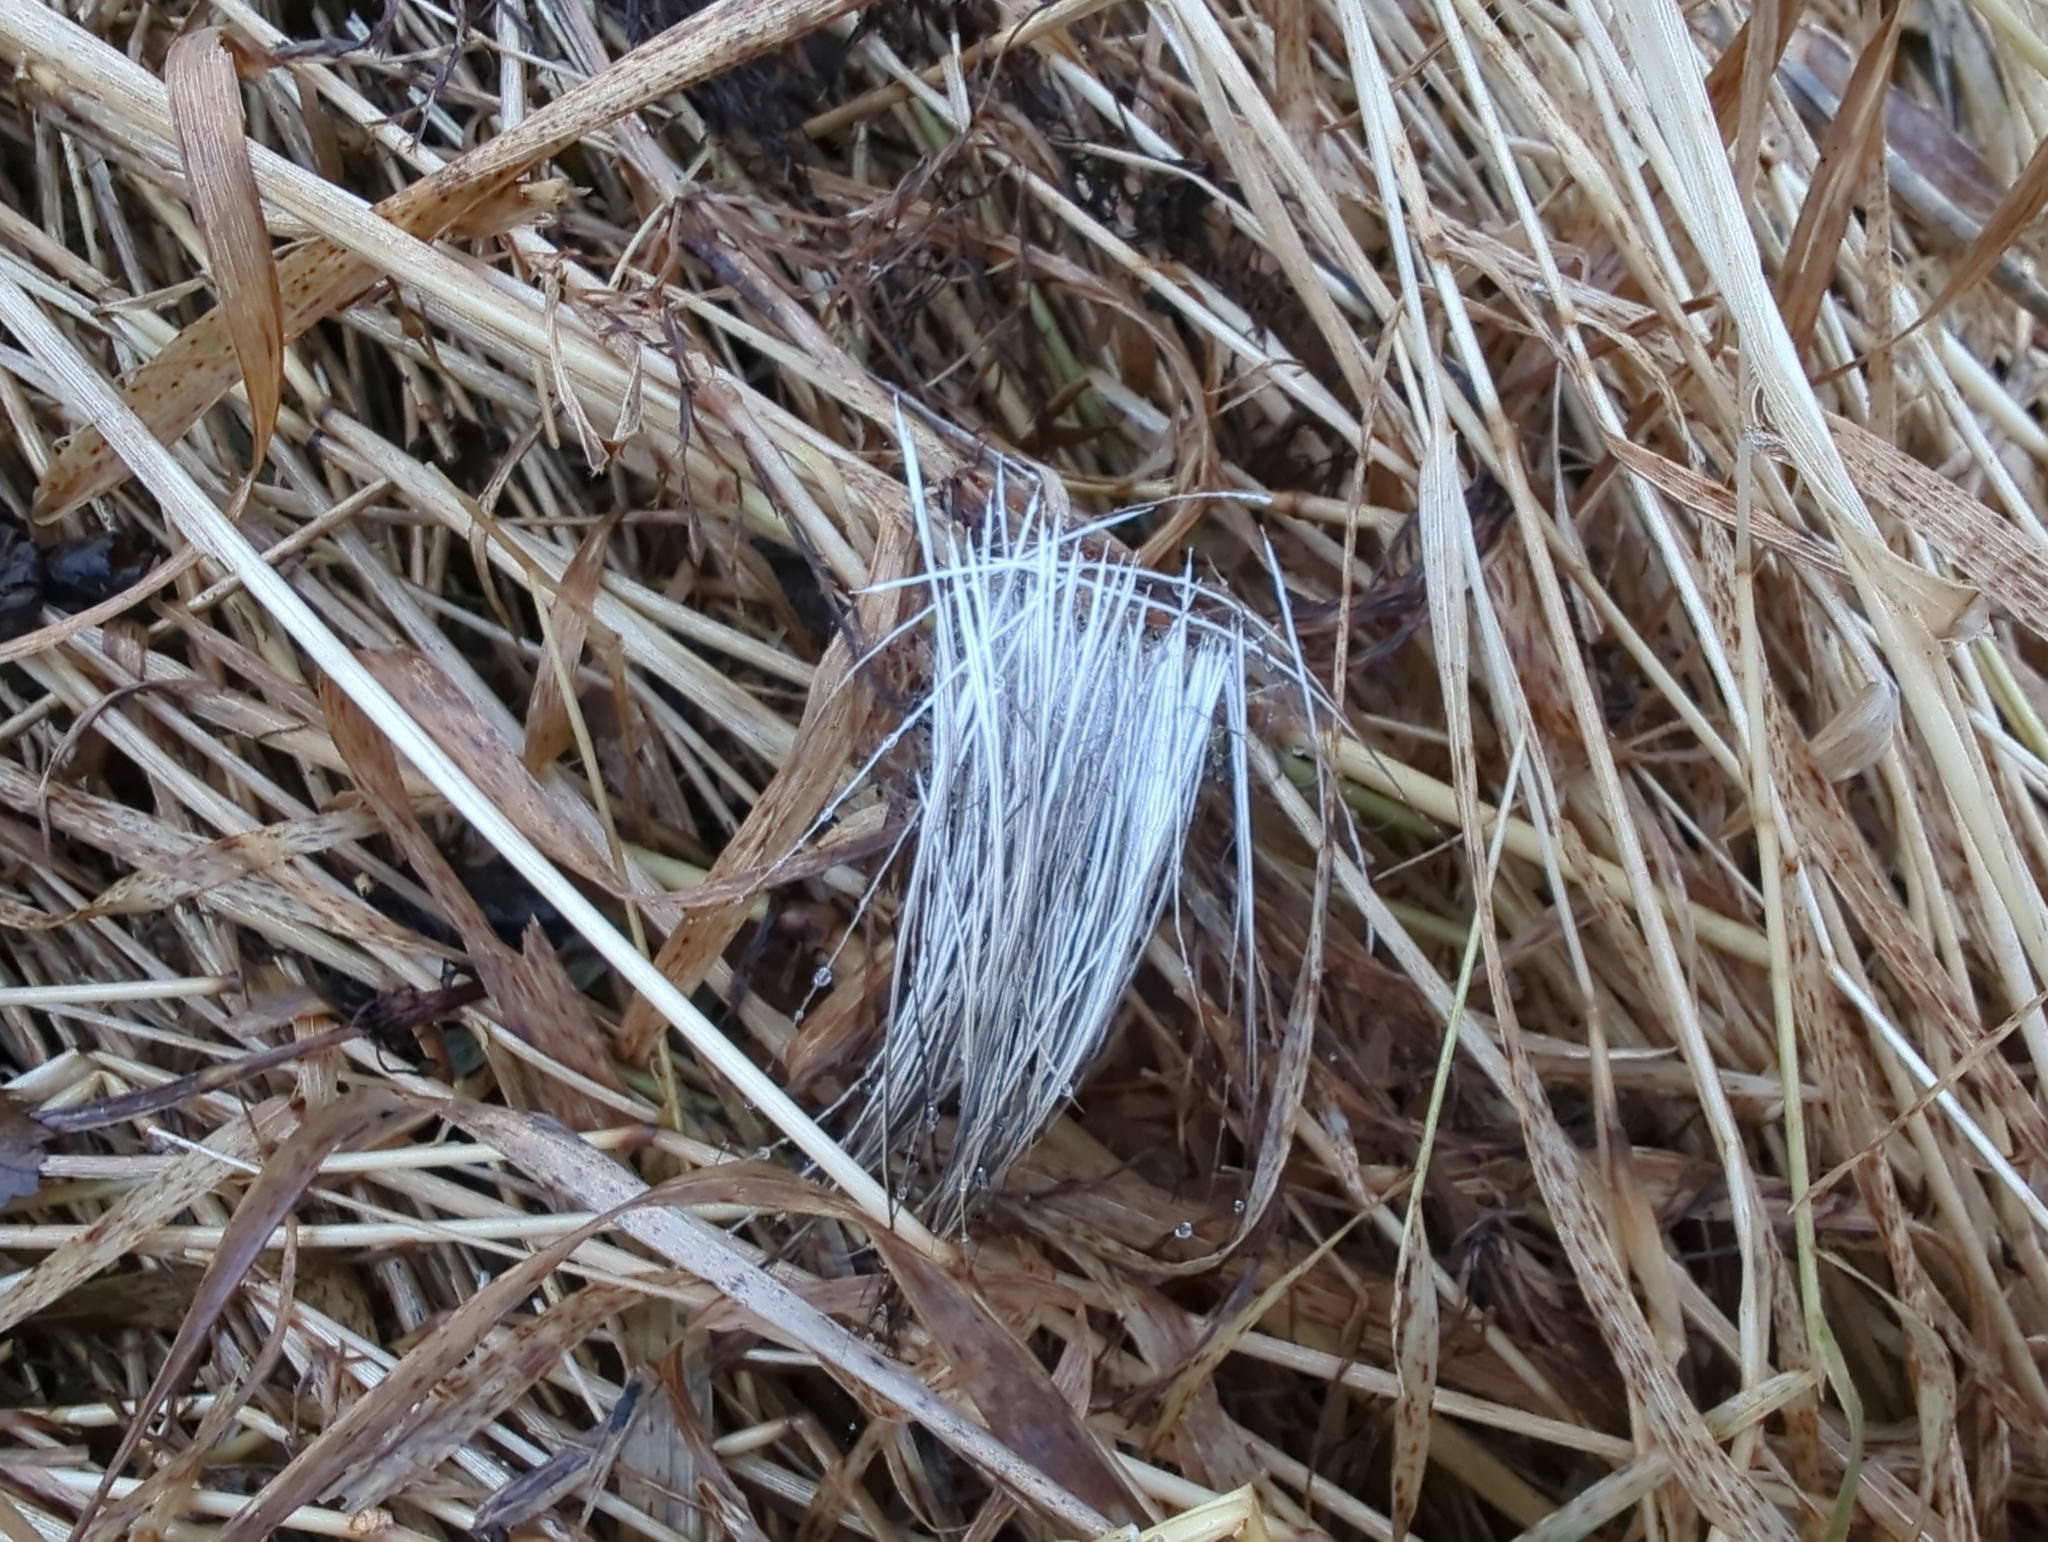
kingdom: Animalia
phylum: Chordata
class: Mammalia
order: Artiodactyla
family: Cervidae
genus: Alces
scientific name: Alces alces
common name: Moose
